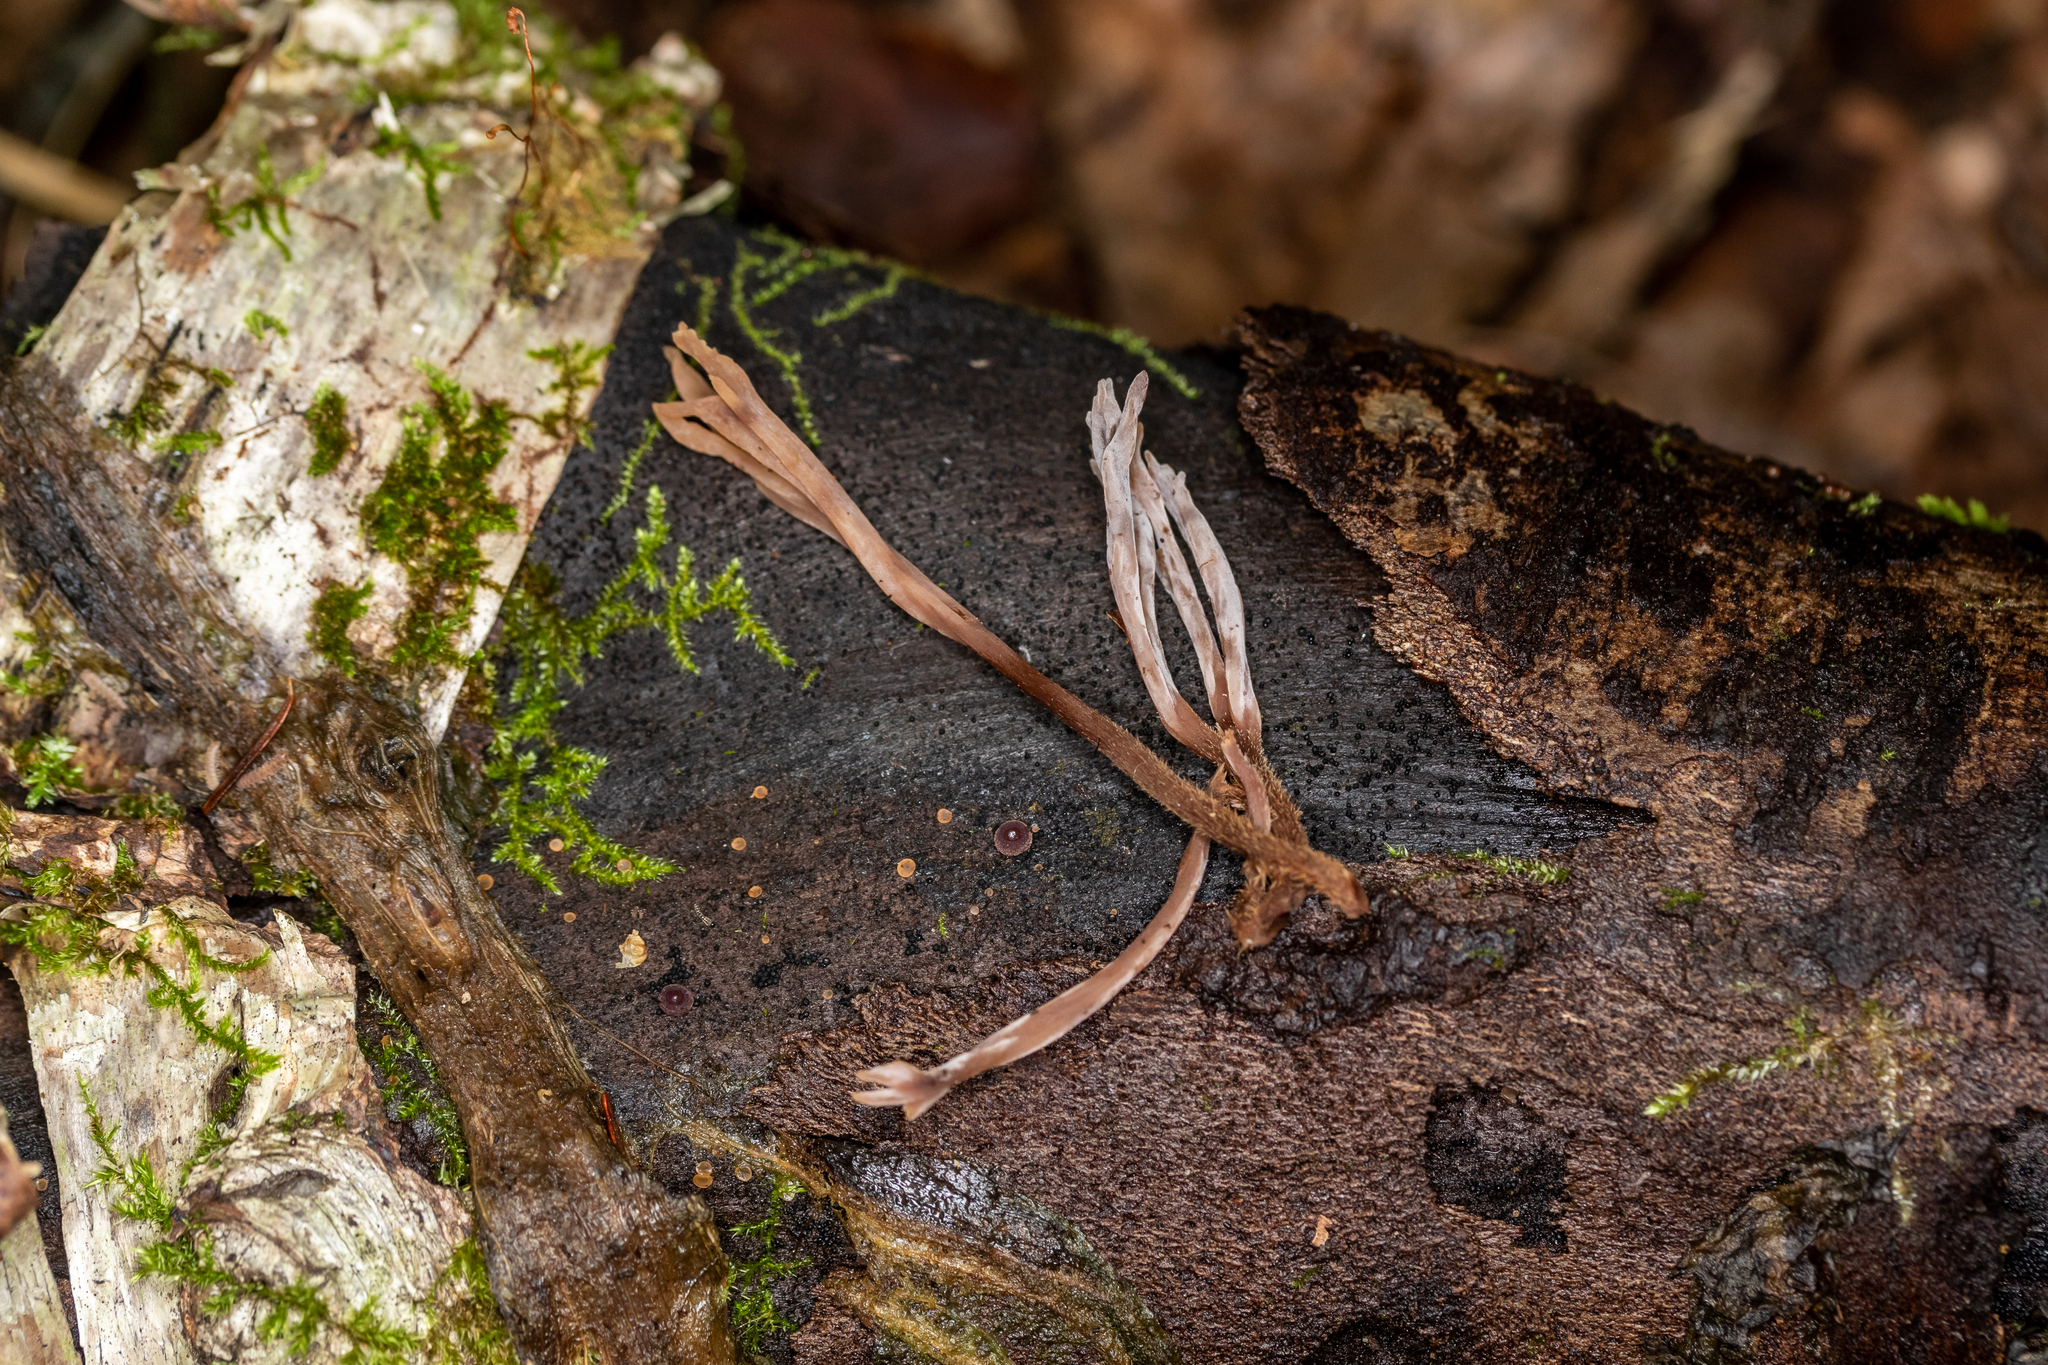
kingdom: Fungi
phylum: Basidiomycota
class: Agaricomycetes
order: Cantharellales
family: Hydnaceae
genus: Clavulina
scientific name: Clavulina castaneipes
